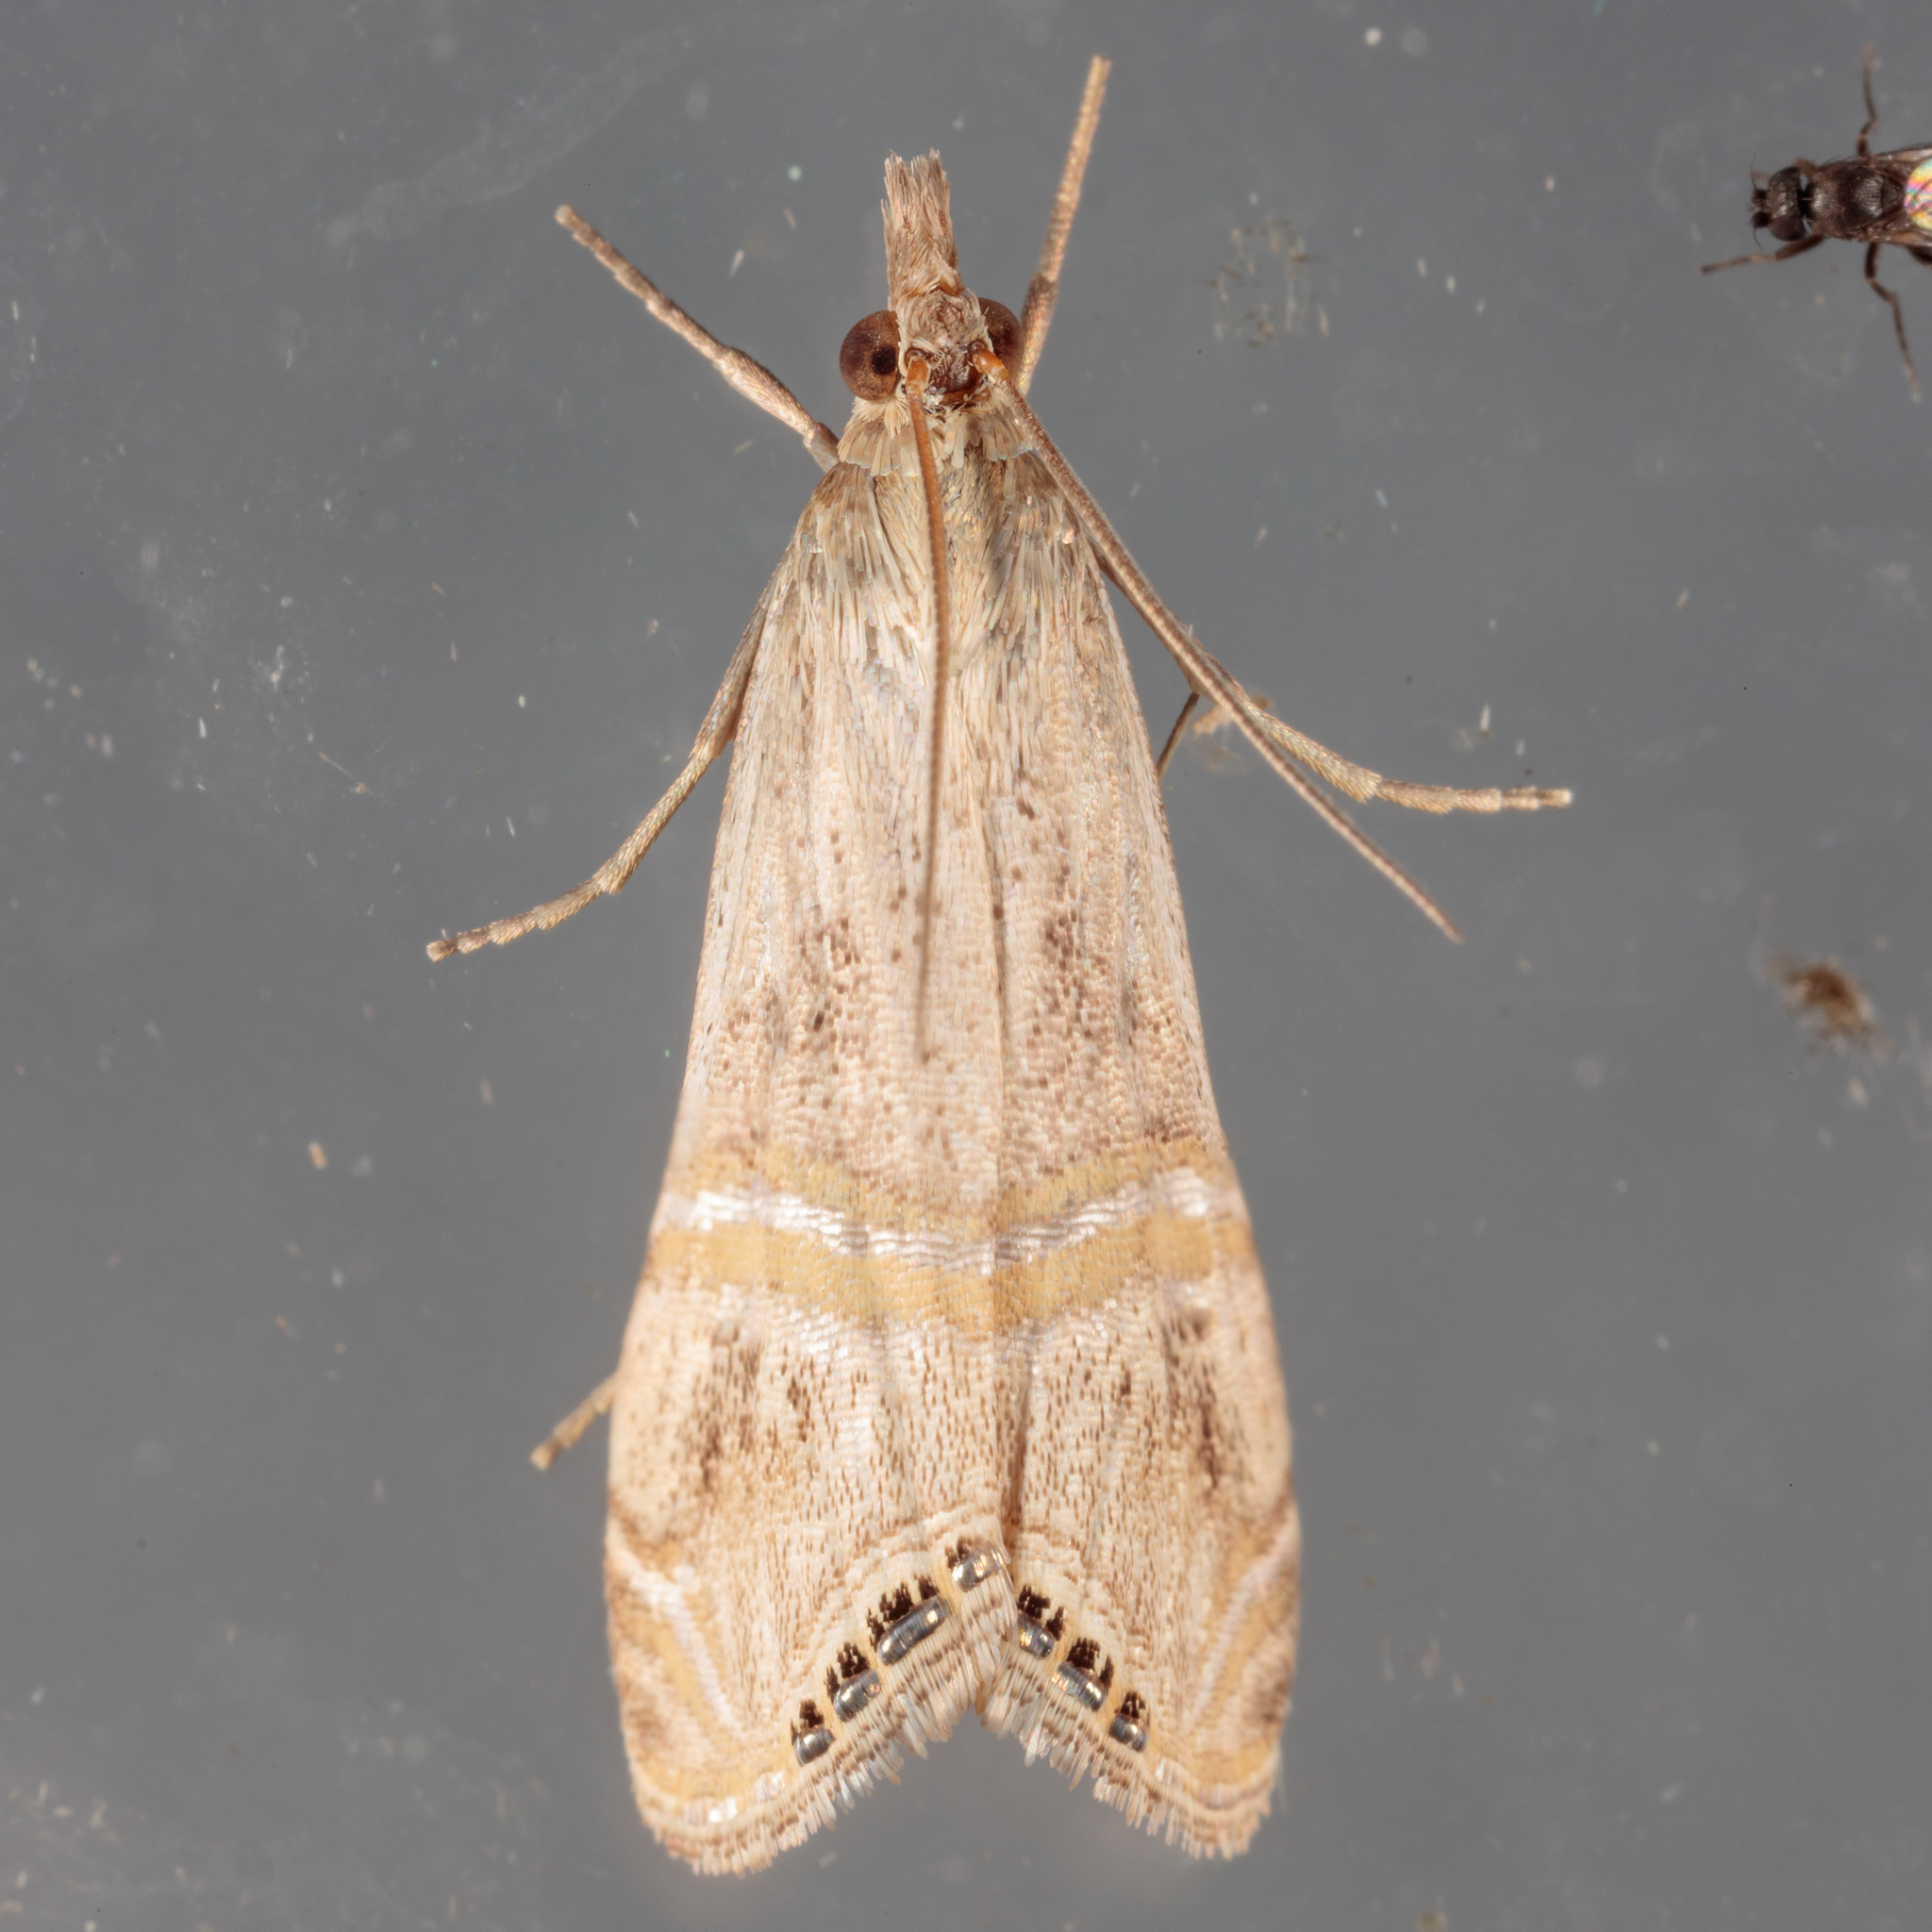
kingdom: Animalia
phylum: Arthropoda
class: Insecta
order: Lepidoptera
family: Crambidae
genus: Euchromius
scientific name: Euchromius ocellea
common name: Necklace veneer moth
